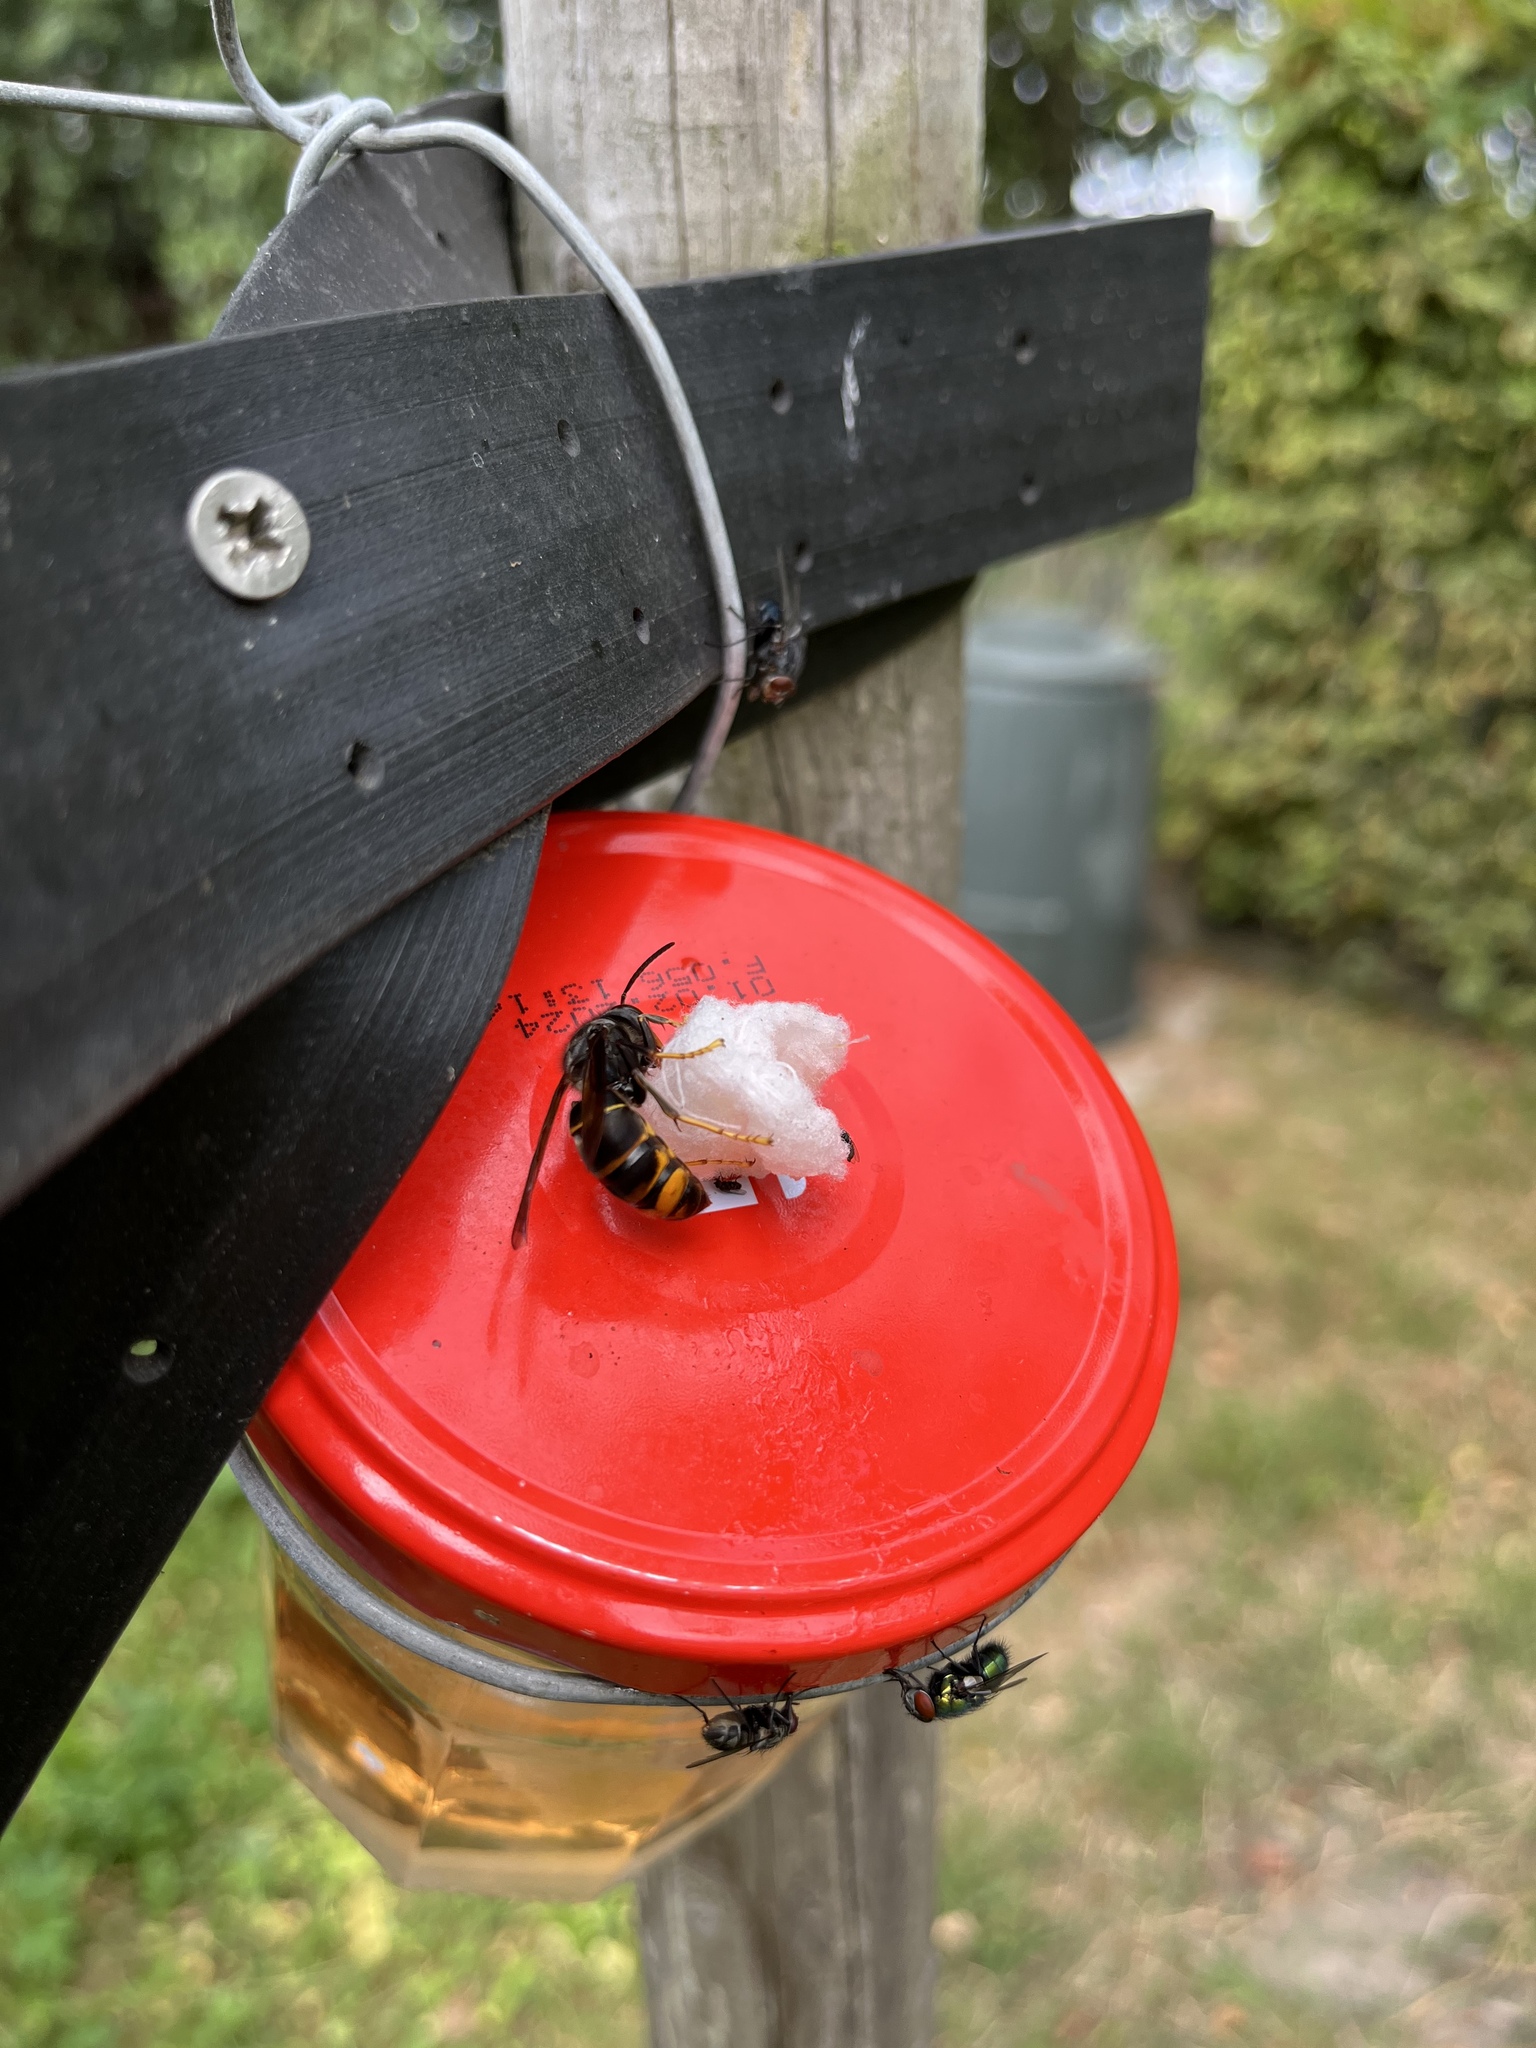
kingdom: Animalia
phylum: Arthropoda
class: Insecta
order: Hymenoptera
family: Vespidae
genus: Vespa
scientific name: Vespa velutina
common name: Asian hornet
